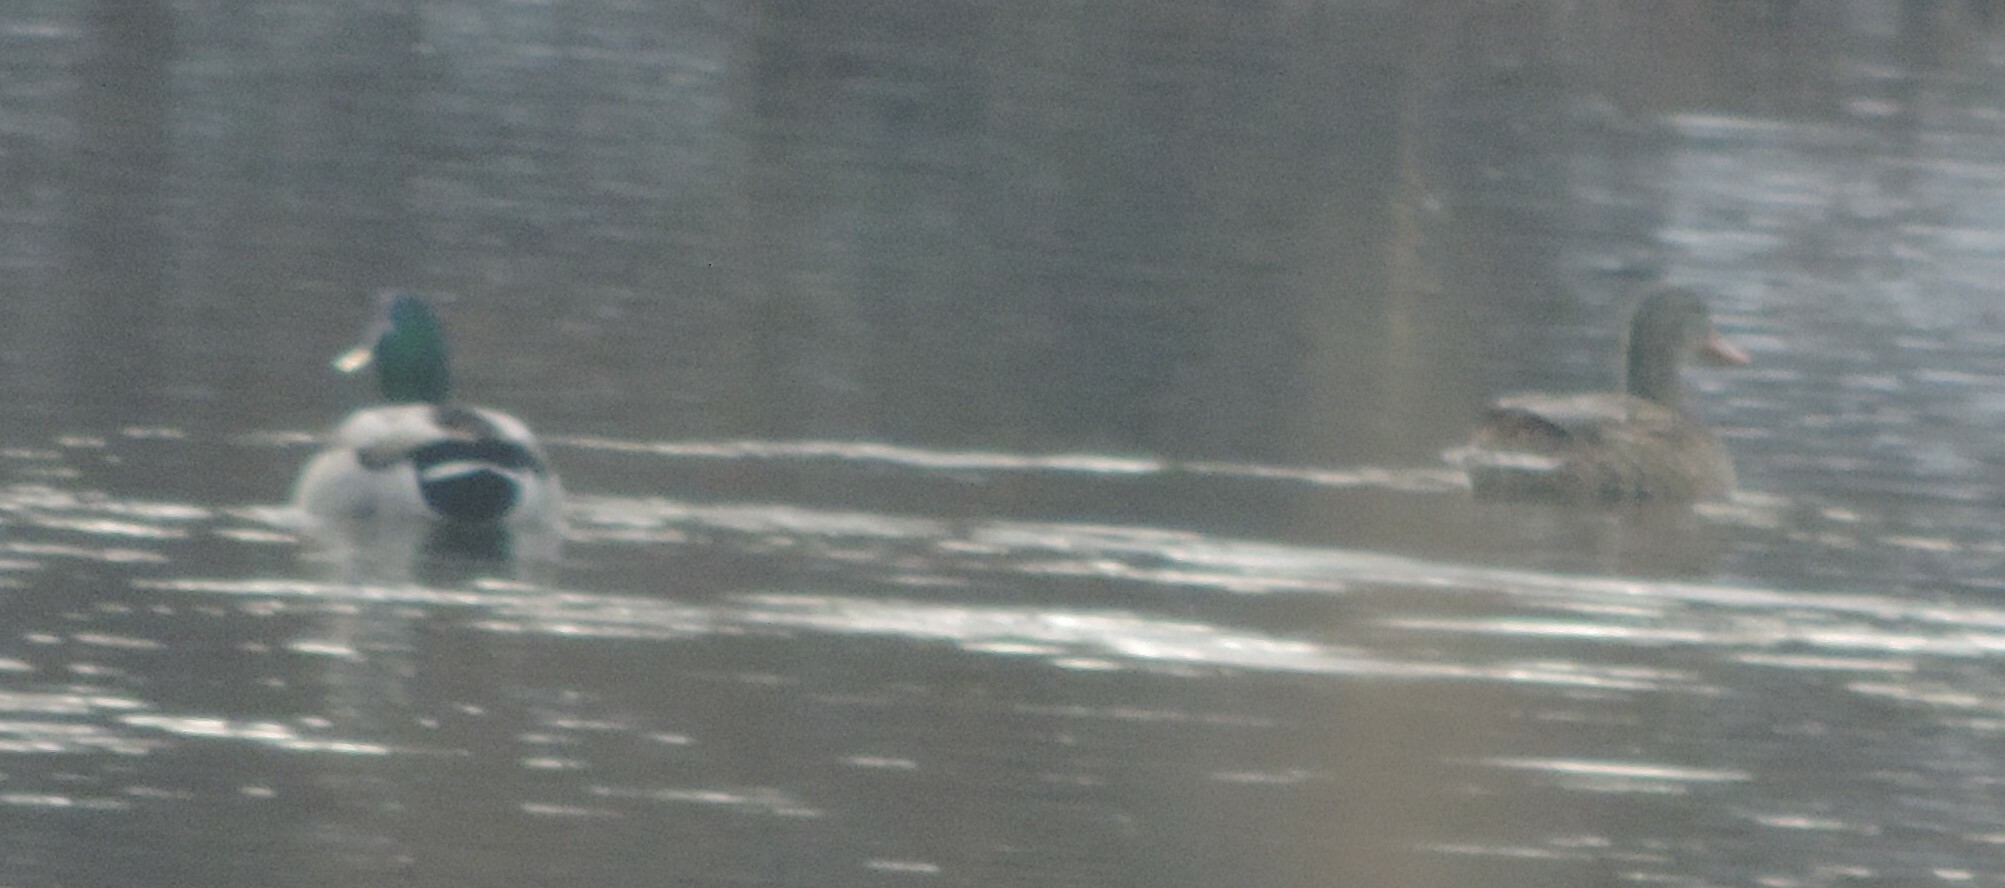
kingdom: Animalia
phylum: Chordata
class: Aves
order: Anseriformes
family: Anatidae
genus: Anas
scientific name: Anas platyrhynchos
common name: Mallard
